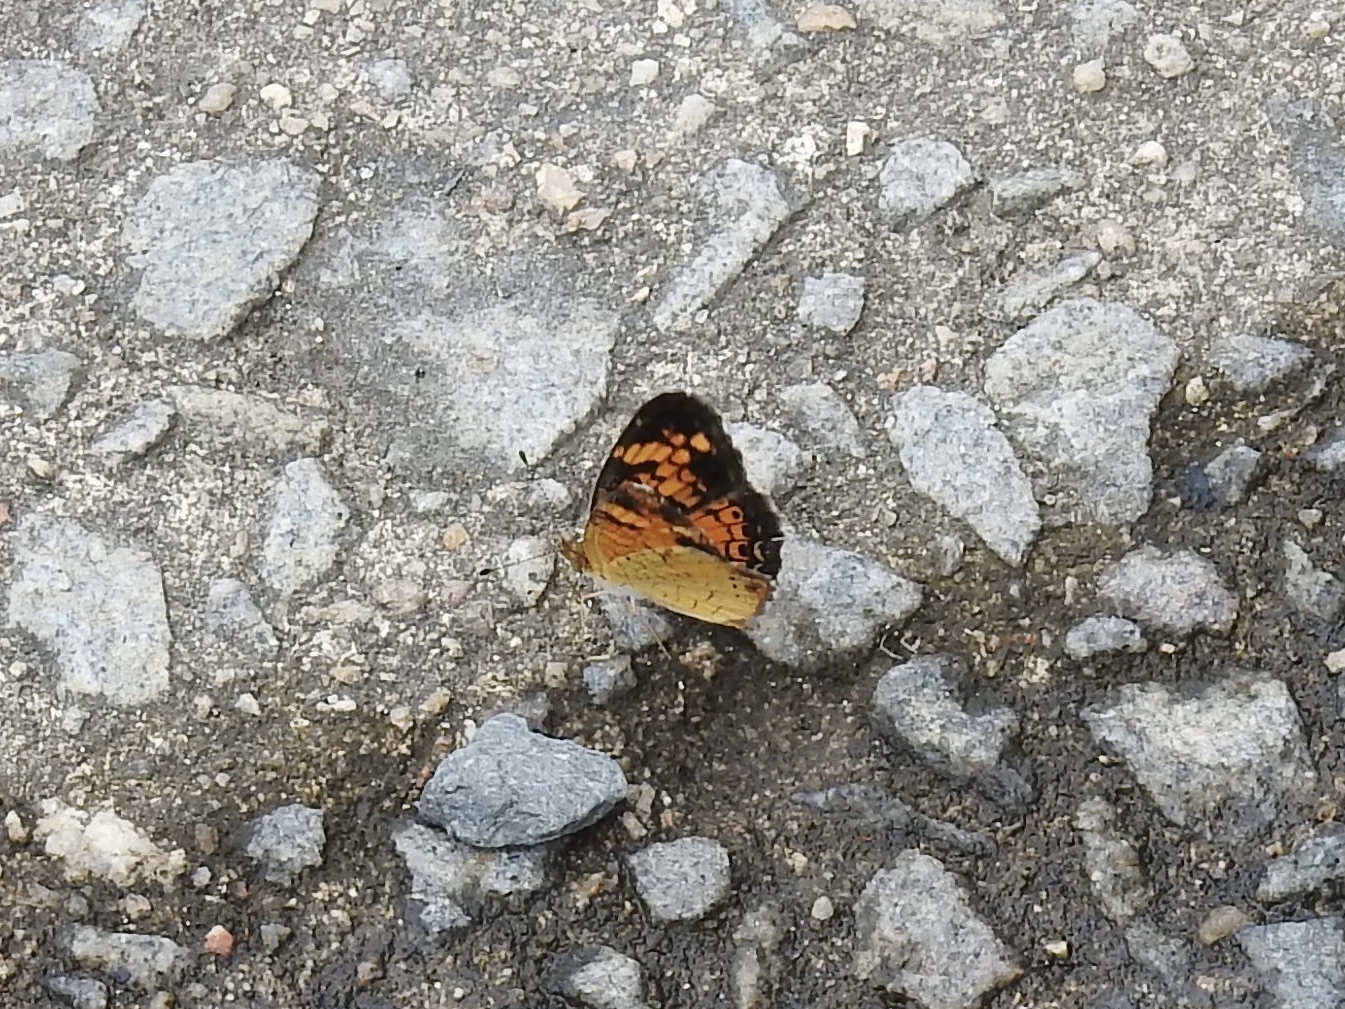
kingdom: Animalia
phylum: Arthropoda
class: Insecta
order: Lepidoptera
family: Nymphalidae
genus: Phyciodes
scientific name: Phyciodes tharos
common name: Pearl crescent
